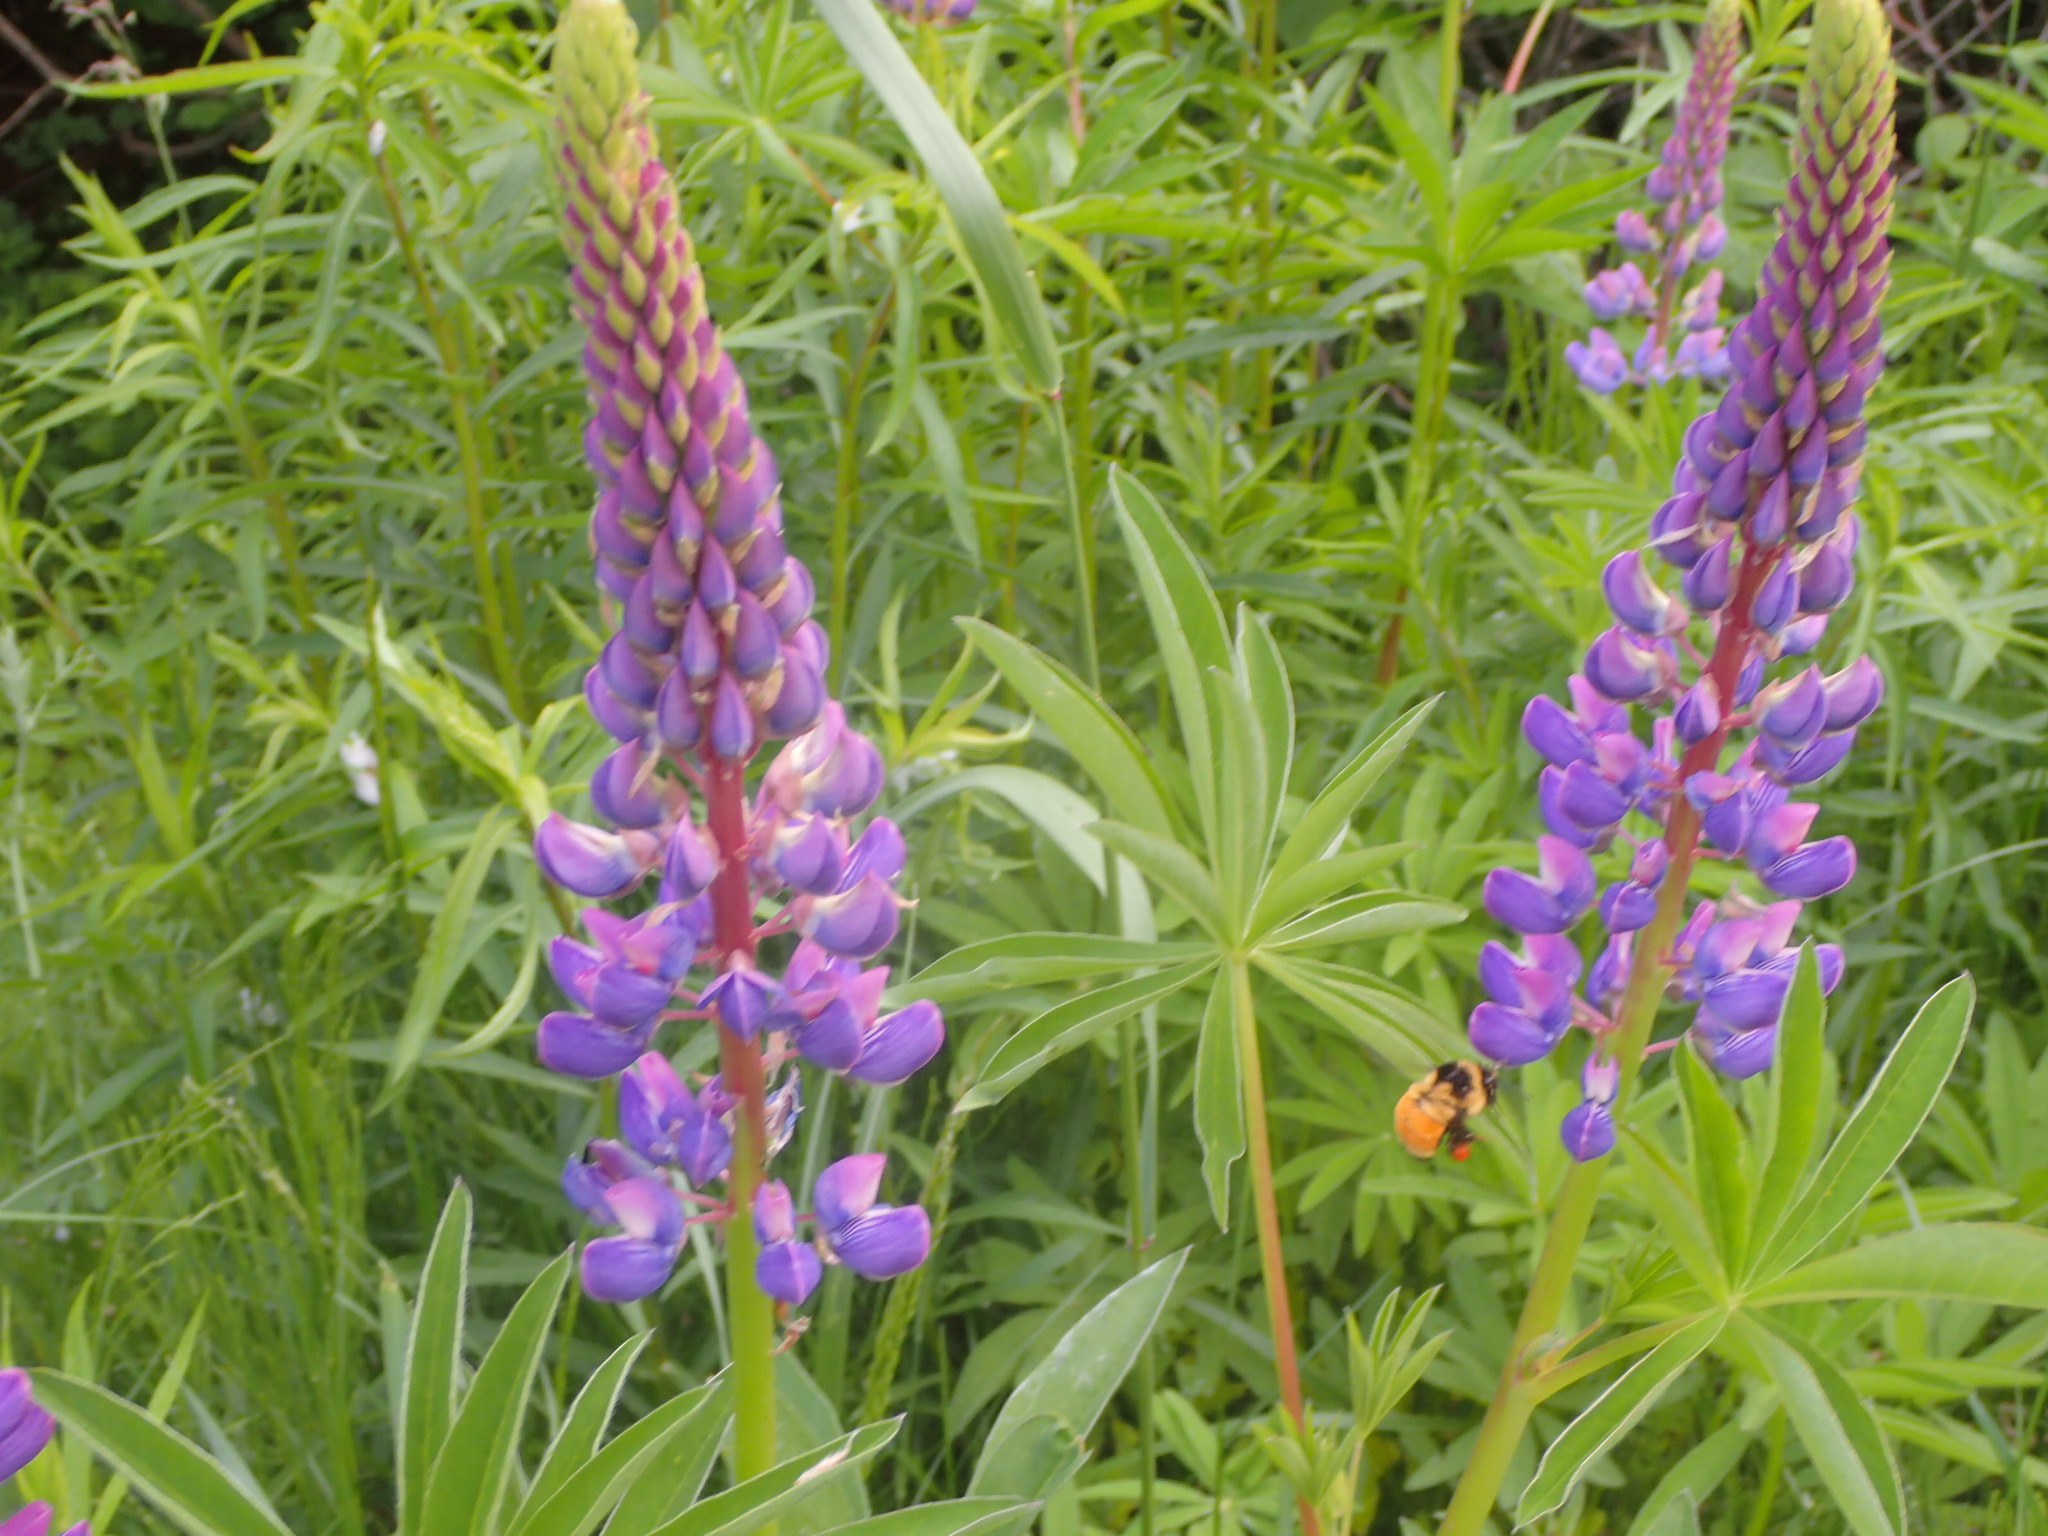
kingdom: Animalia
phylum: Arthropoda
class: Insecta
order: Hymenoptera
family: Apidae
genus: Bombus
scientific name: Bombus ternarius
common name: Tri-colored bumble bee
